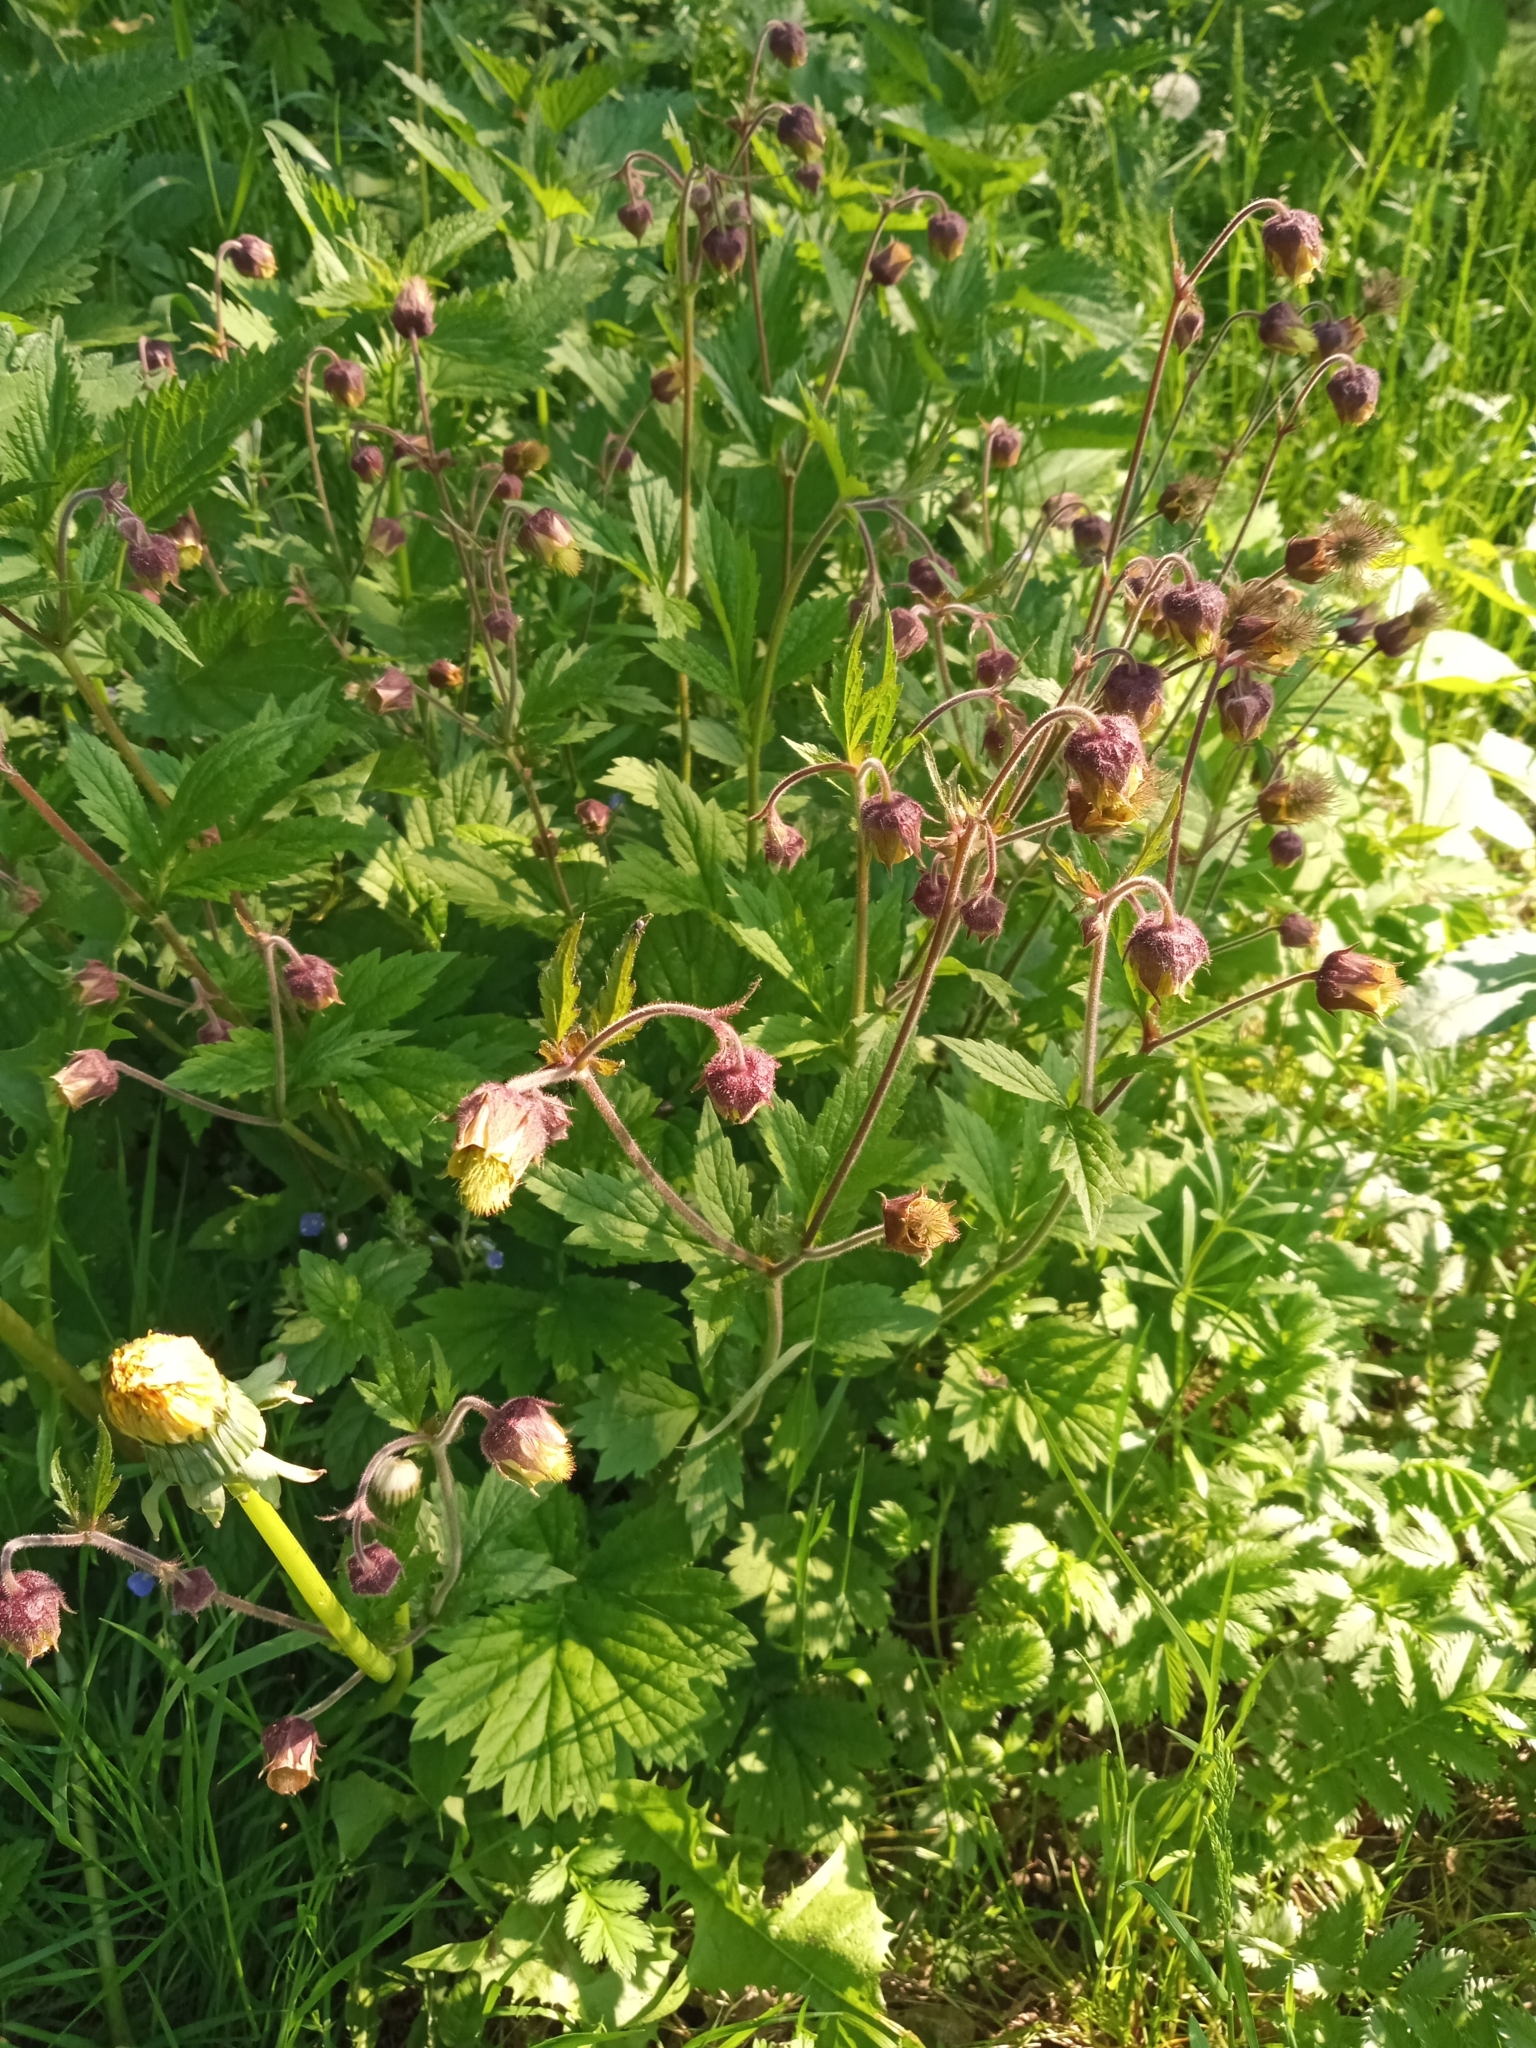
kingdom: Plantae
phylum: Tracheophyta
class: Magnoliopsida
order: Rosales
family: Rosaceae
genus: Geum
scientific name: Geum rivale
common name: Water avens
